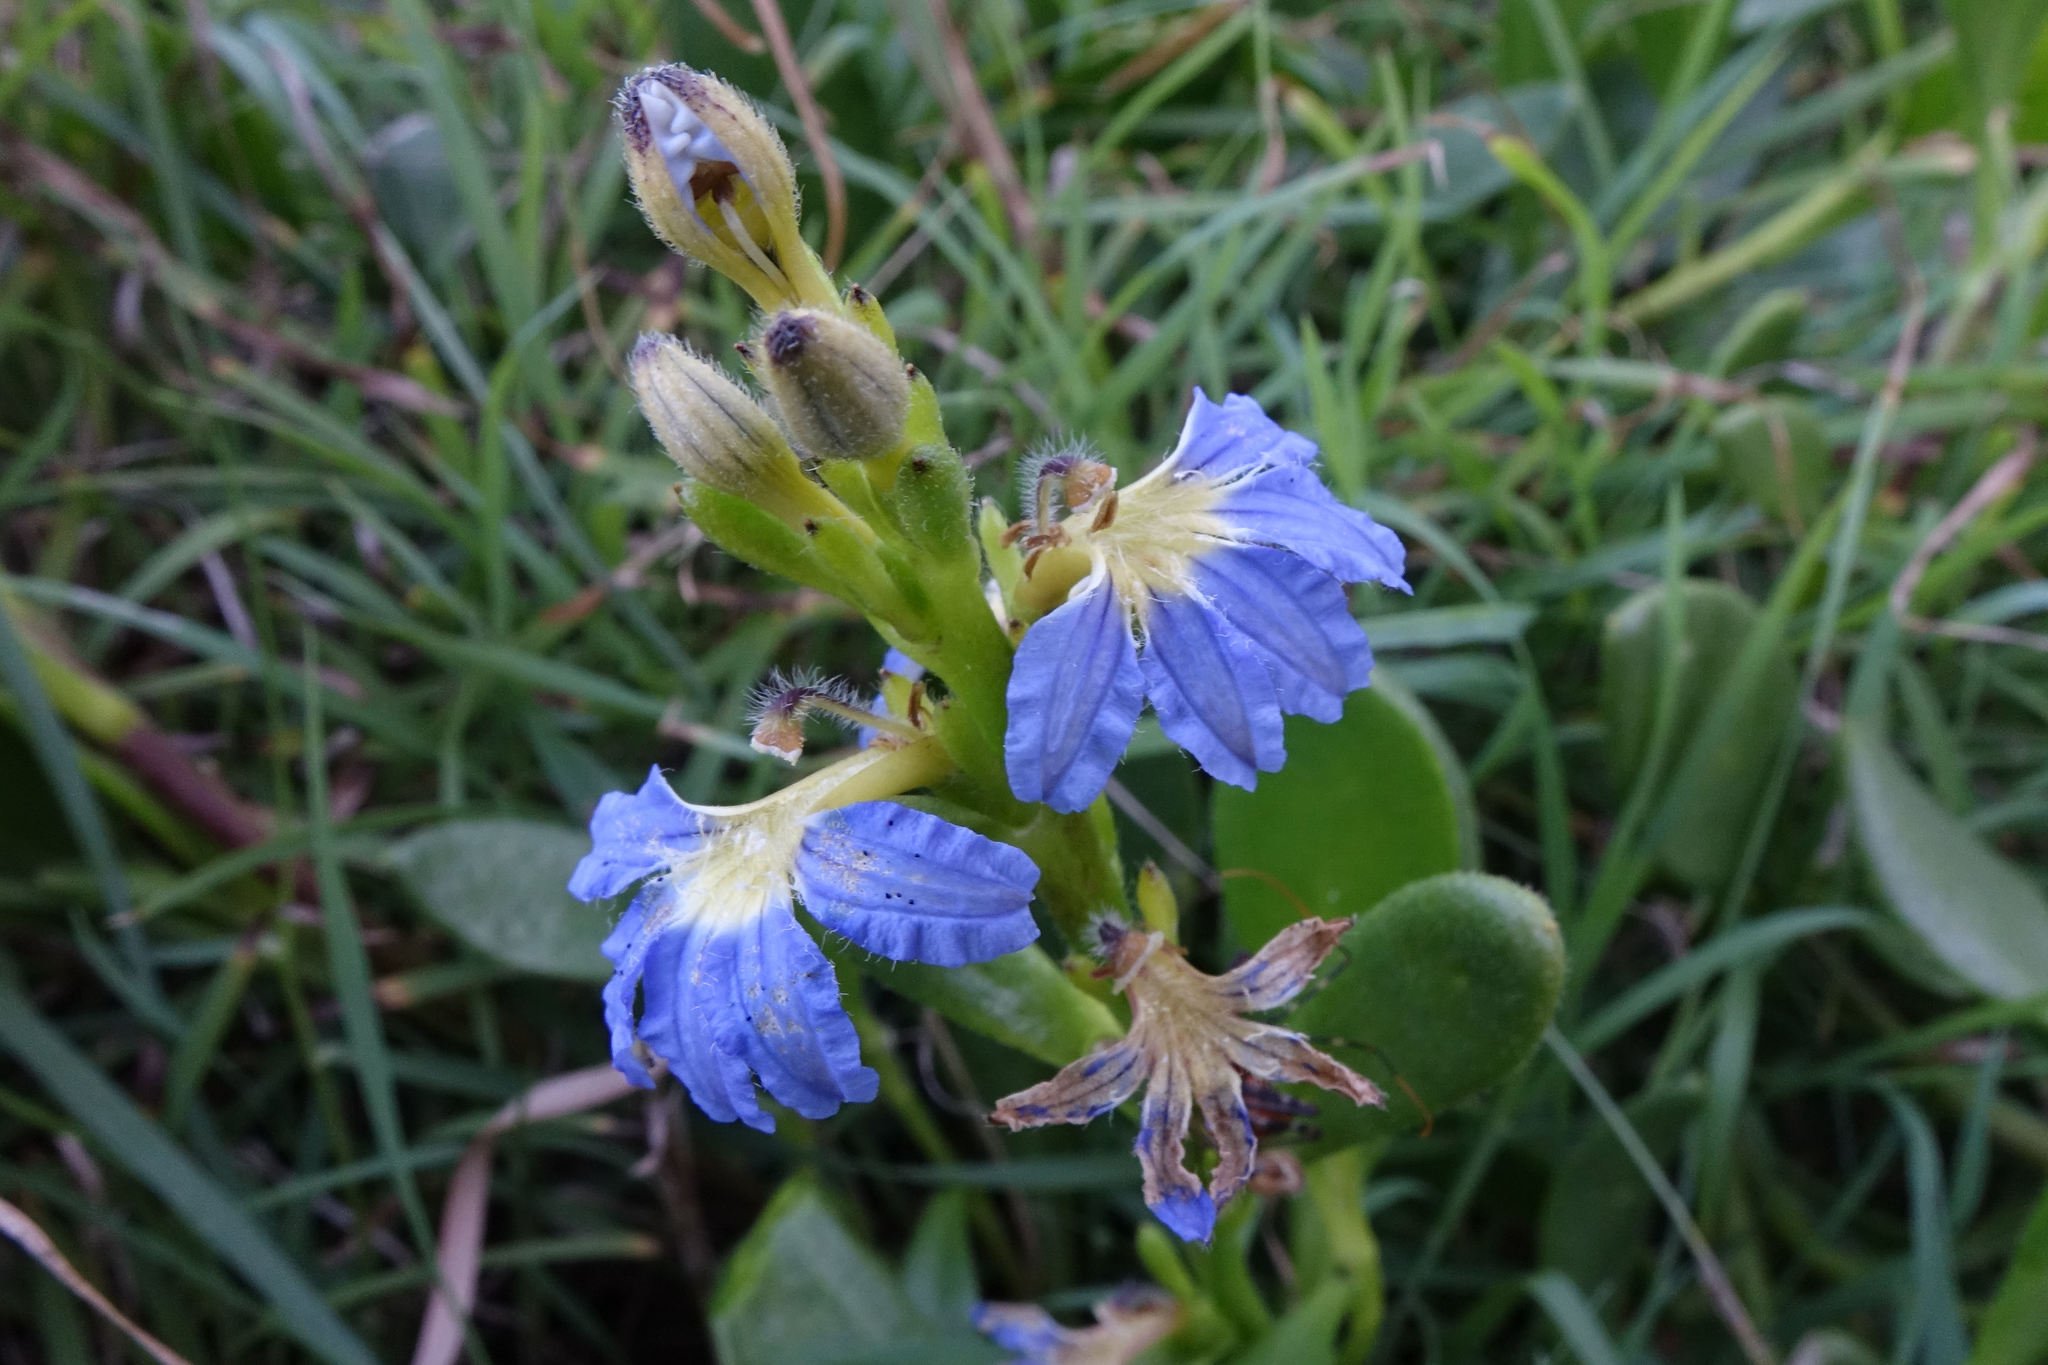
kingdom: Plantae
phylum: Tracheophyta
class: Magnoliopsida
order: Asterales
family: Goodeniaceae
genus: Scaevola
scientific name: Scaevola calendulacea
